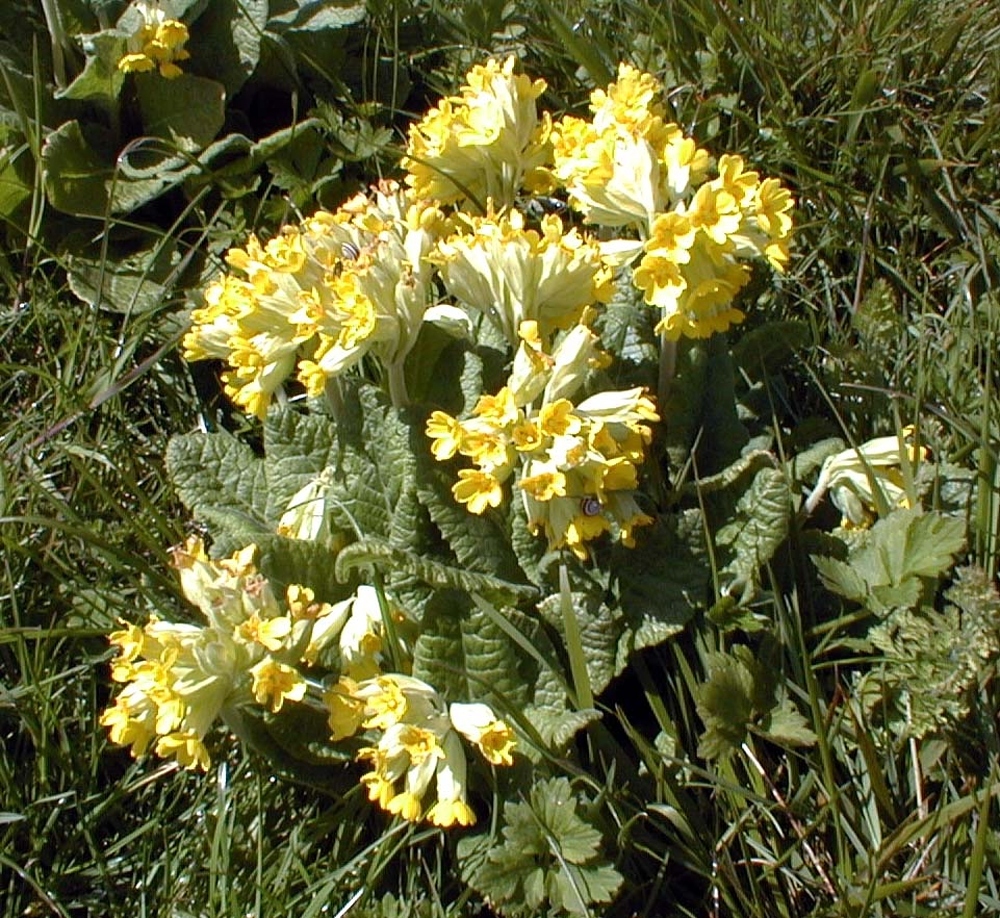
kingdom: Plantae
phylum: Tracheophyta
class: Magnoliopsida
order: Ericales
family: Primulaceae
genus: Primula
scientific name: Primula elatior
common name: Oxlip
